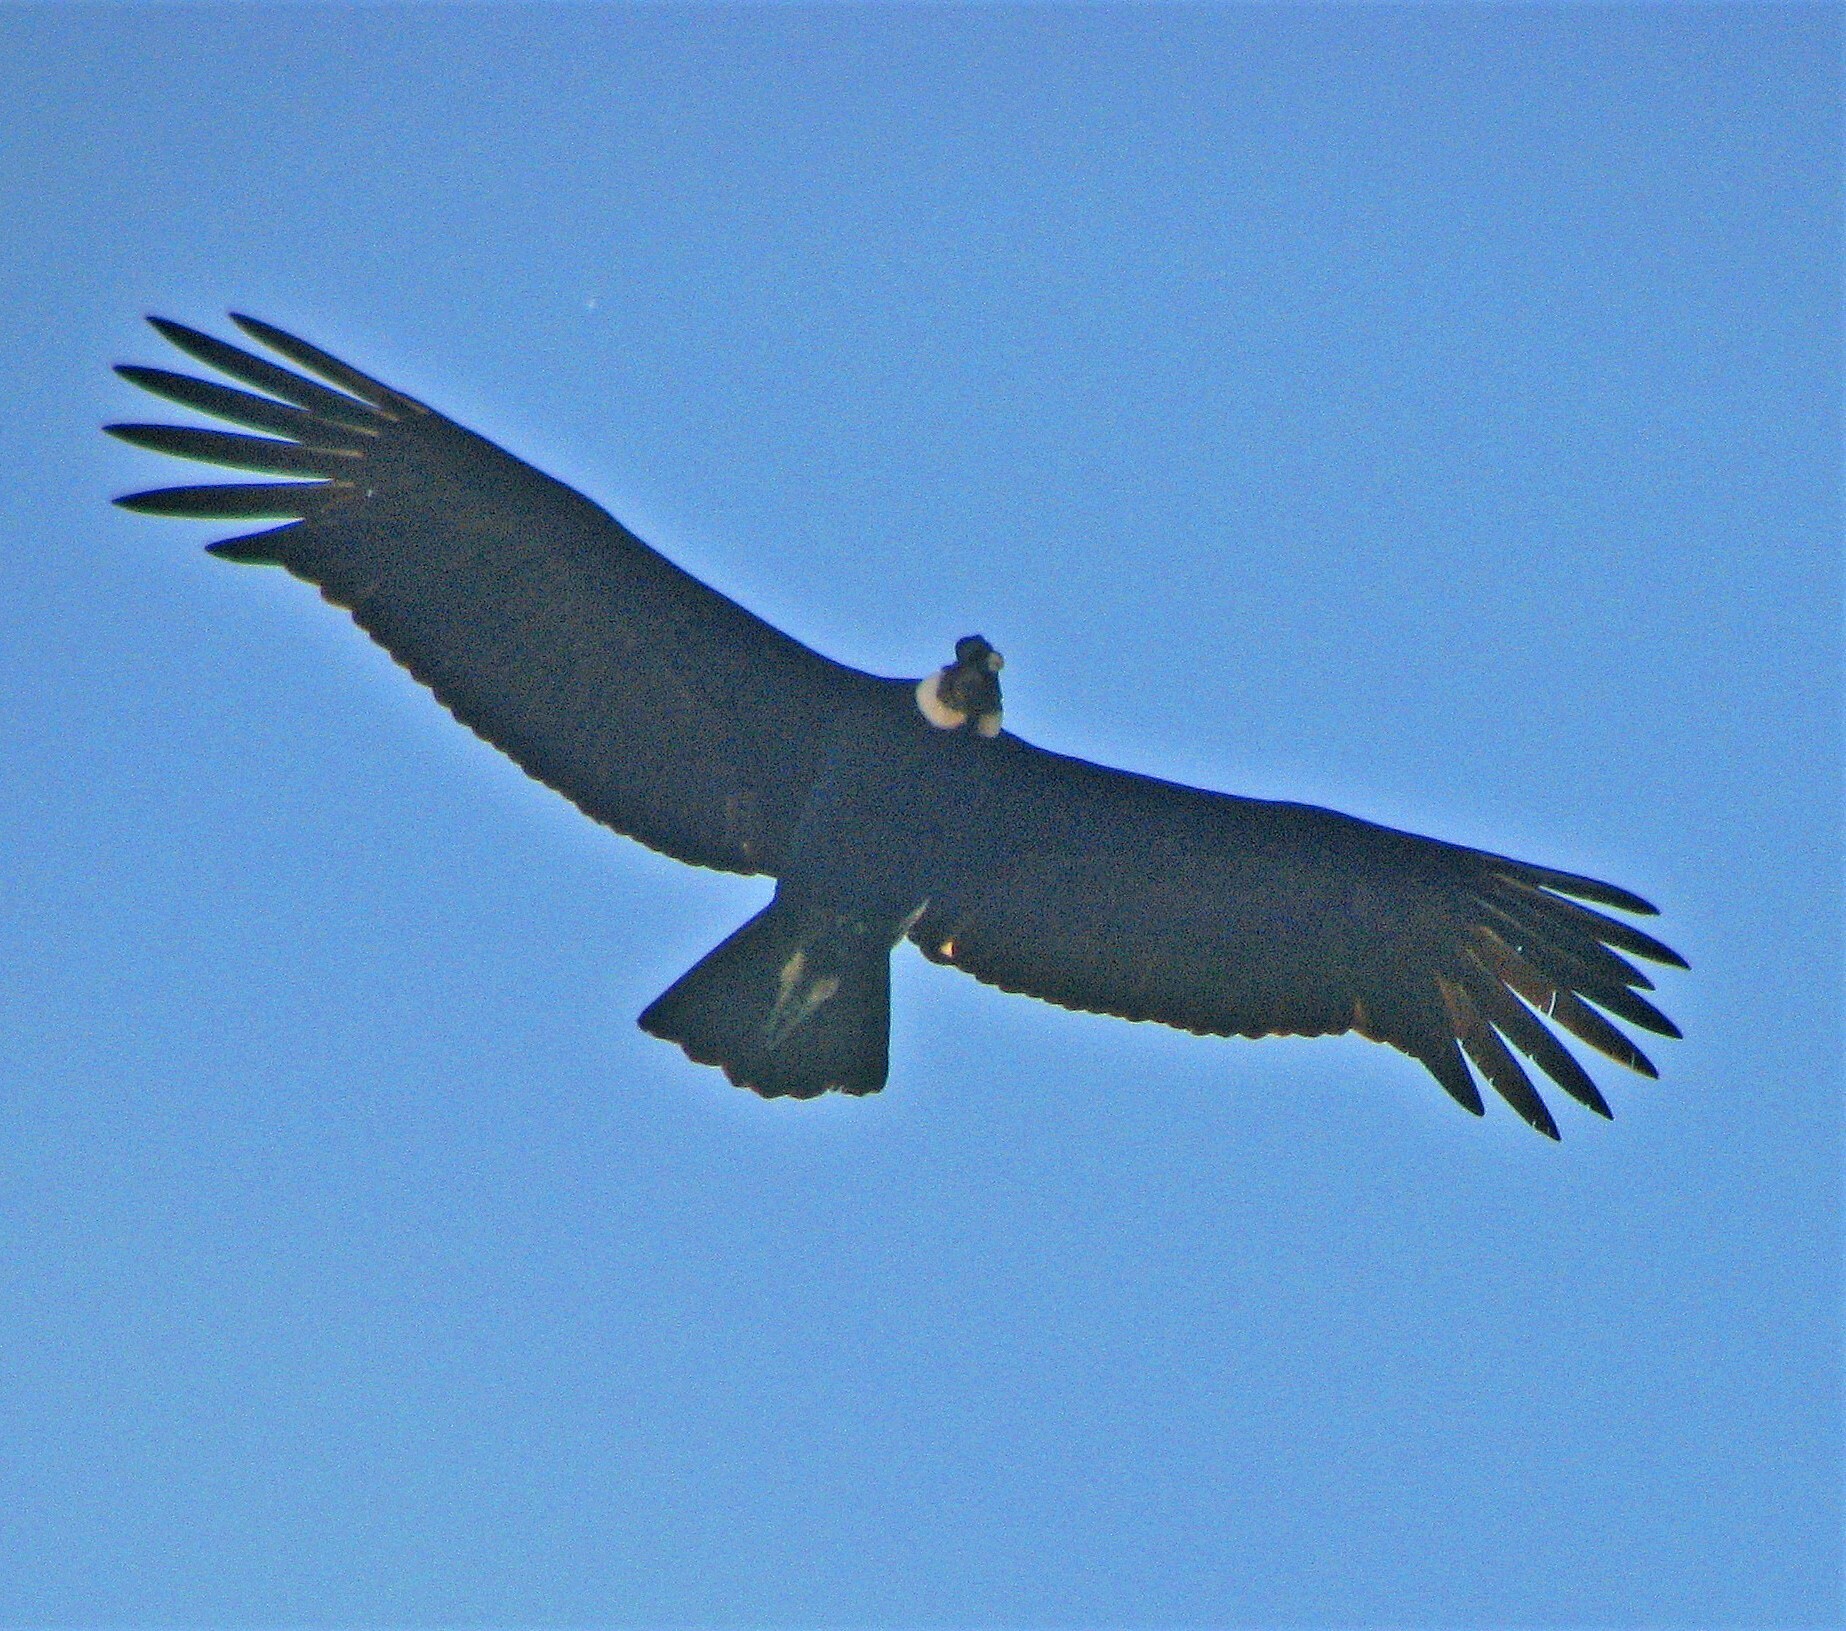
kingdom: Animalia
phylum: Chordata
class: Aves
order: Accipitriformes
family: Cathartidae
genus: Vultur
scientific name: Vultur gryphus
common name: Andean condor
